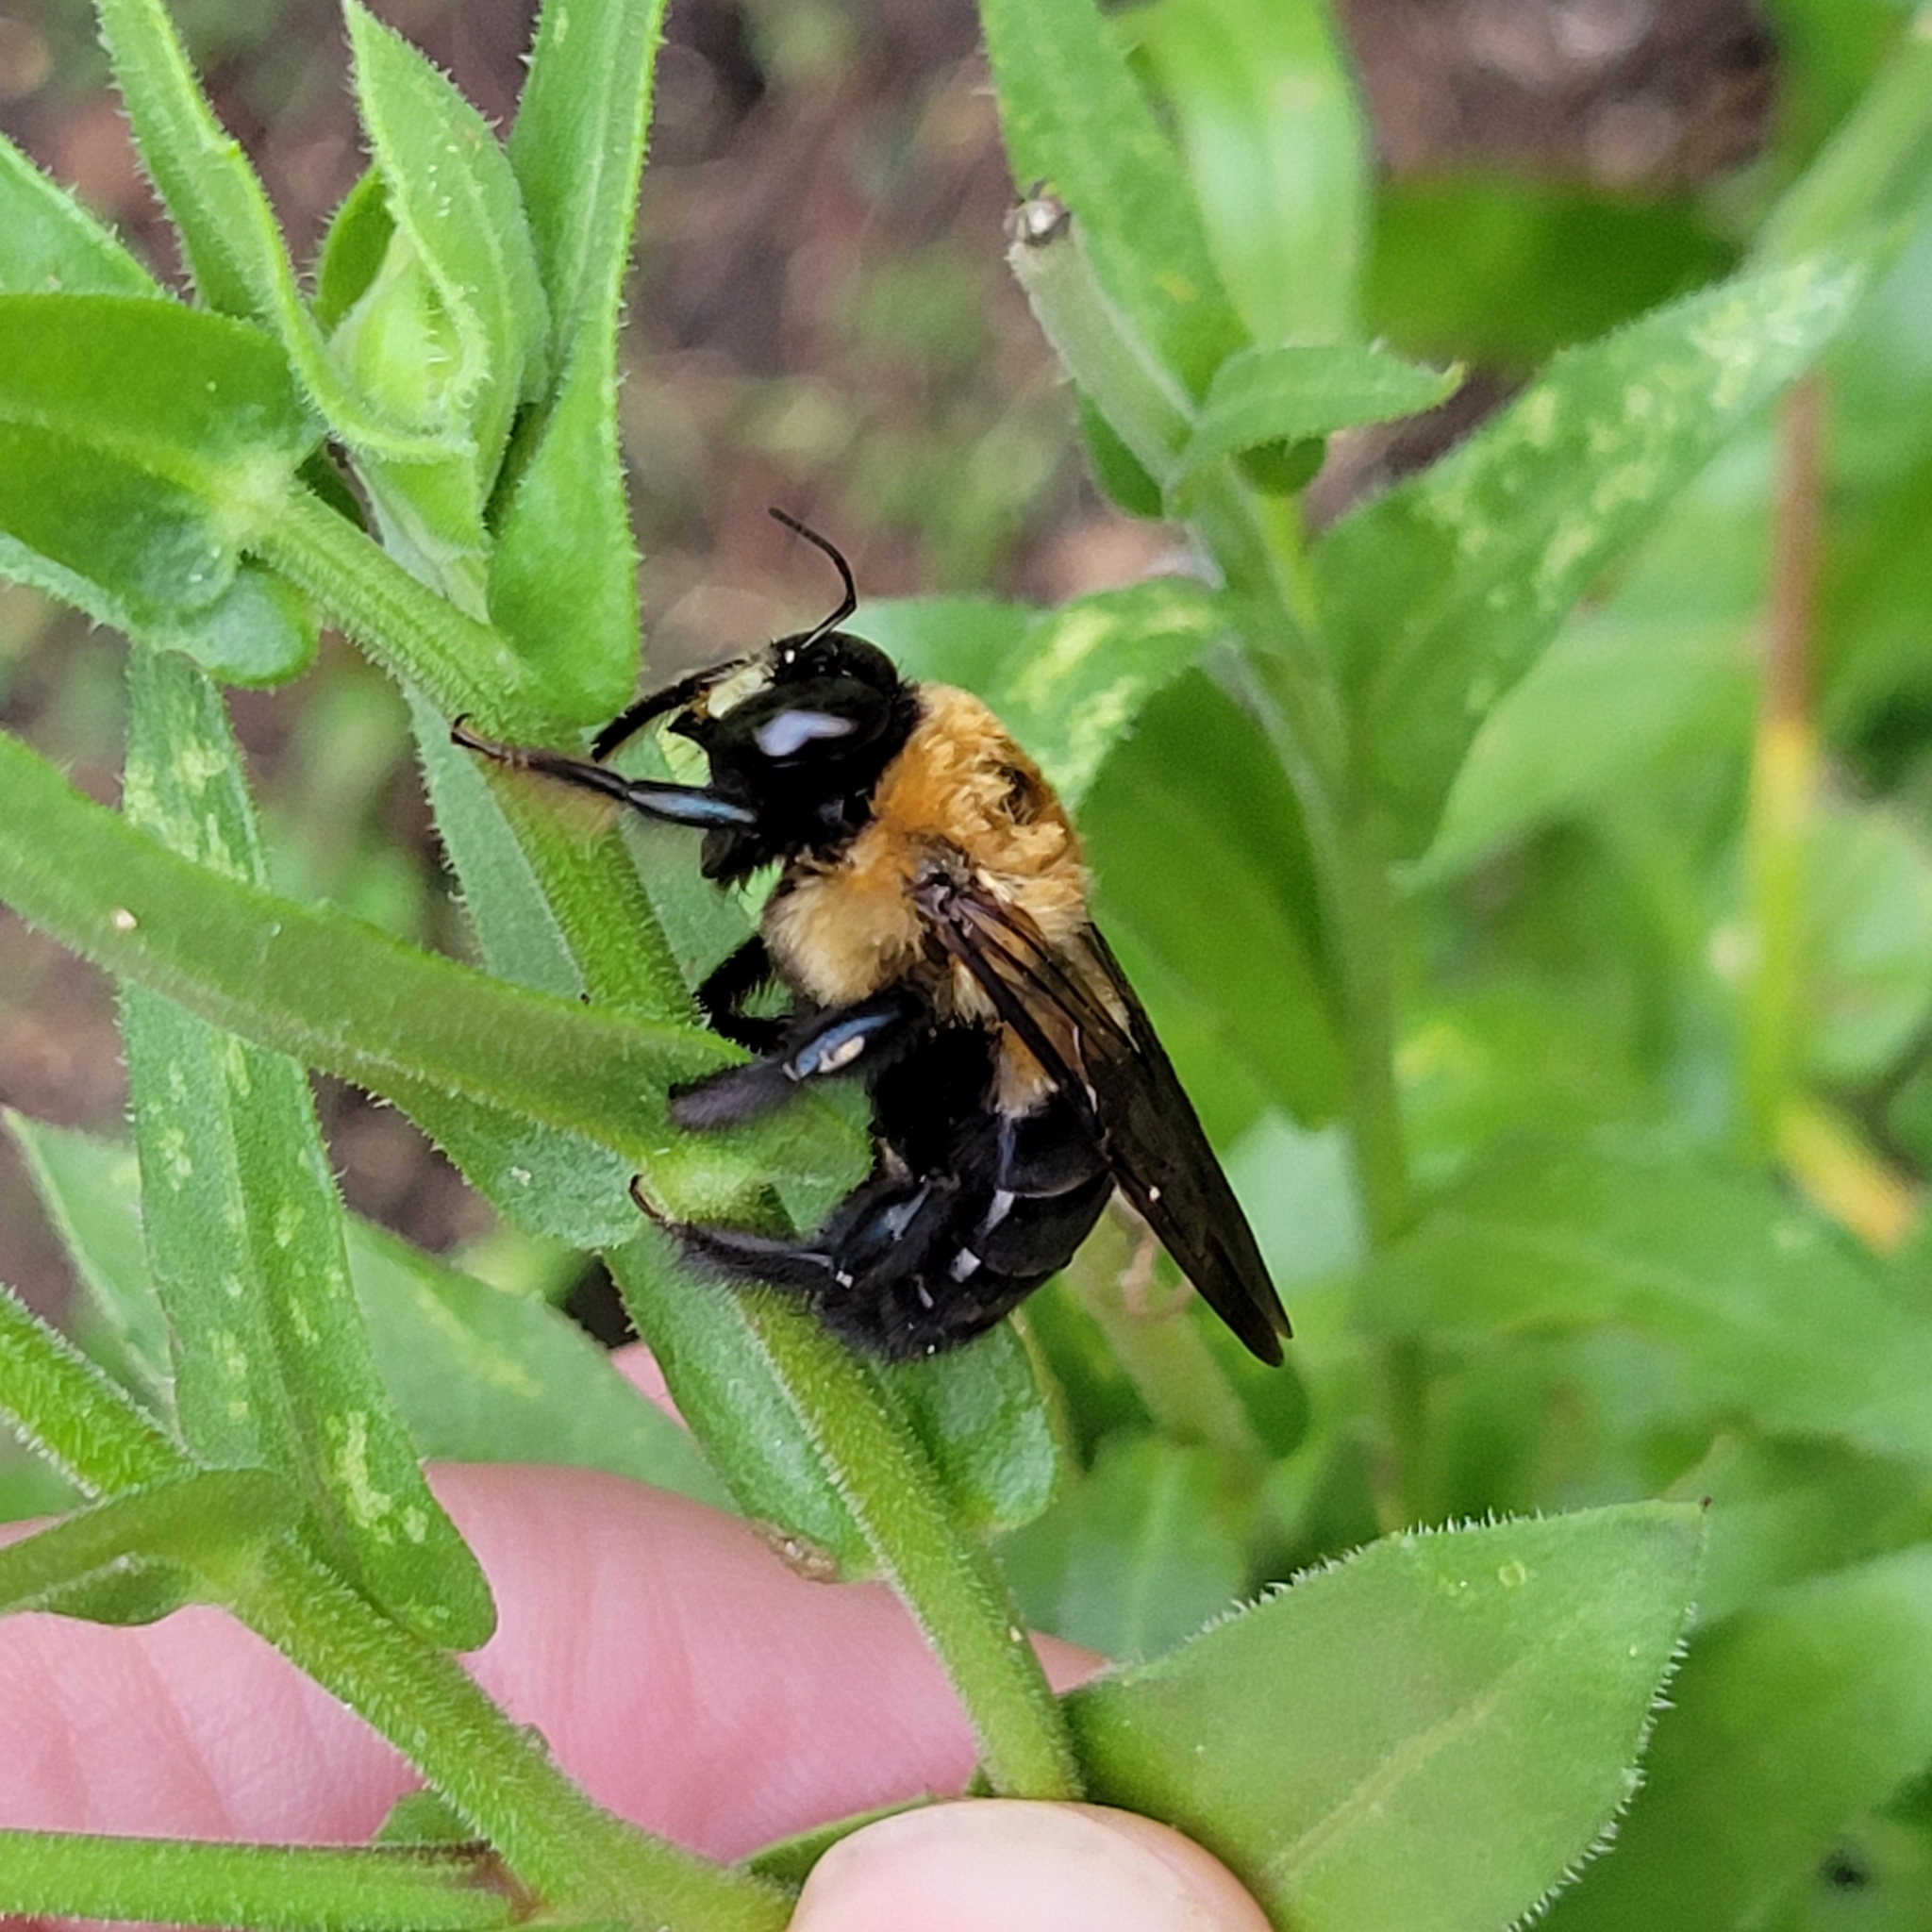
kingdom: Animalia
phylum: Arthropoda
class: Insecta
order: Hymenoptera
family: Apidae
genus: Xylocopa
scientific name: Xylocopa virginica
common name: Carpenter bee
